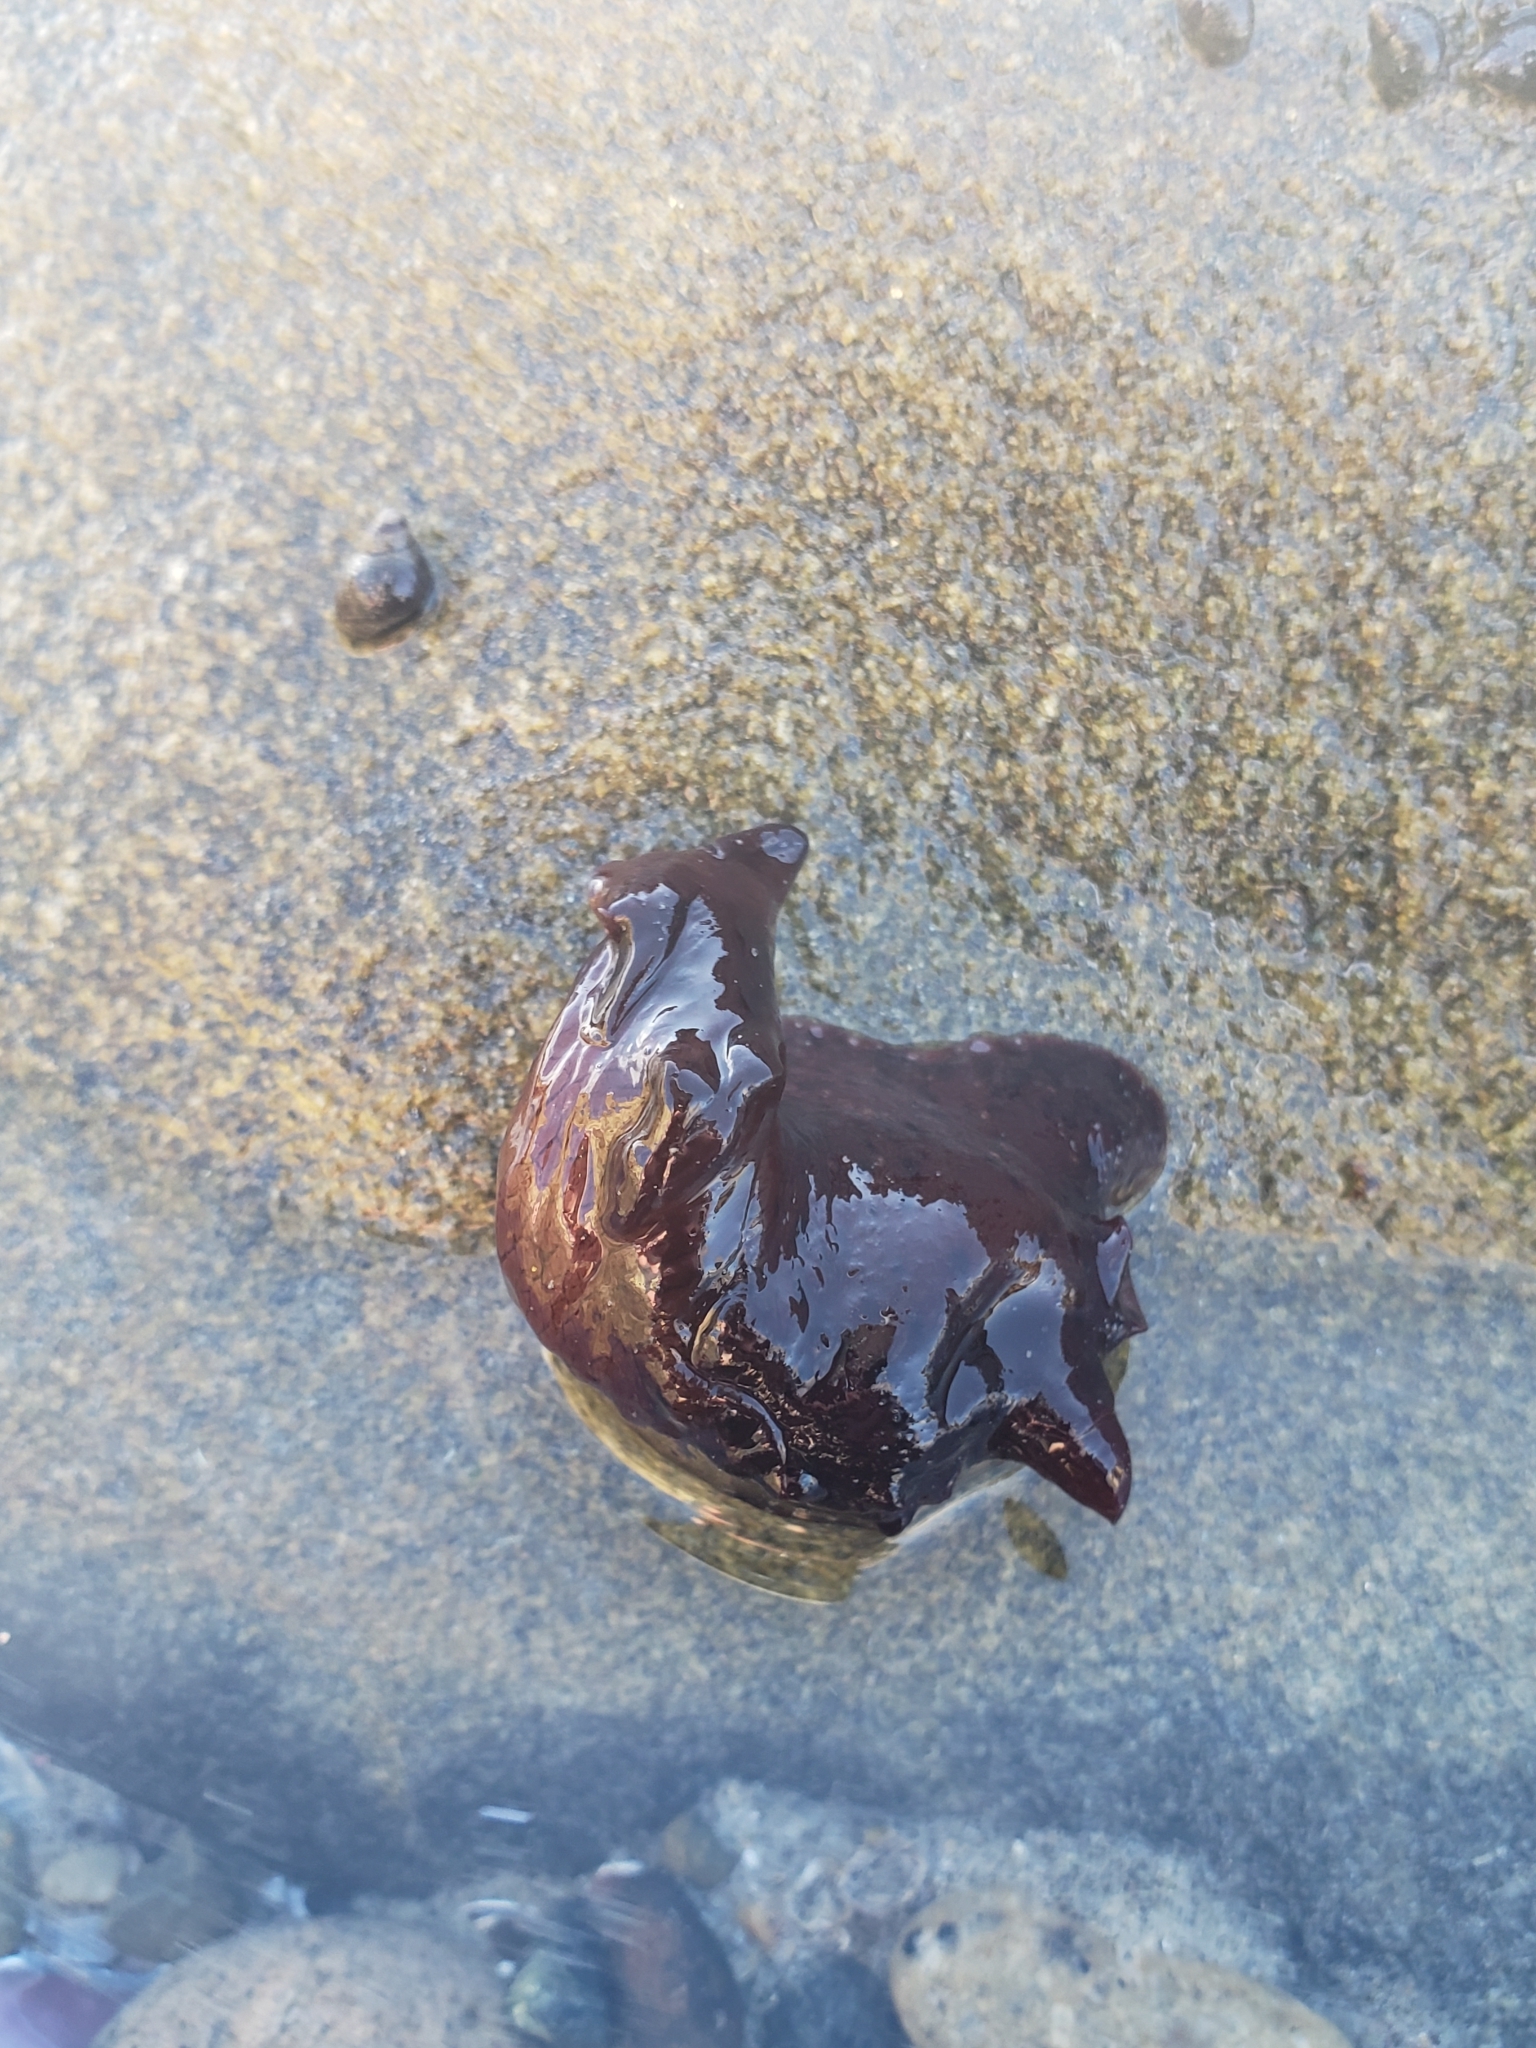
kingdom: Animalia
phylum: Mollusca
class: Gastropoda
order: Aplysiida
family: Aplysiidae
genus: Aplysia
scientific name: Aplysia californica
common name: California seahare
